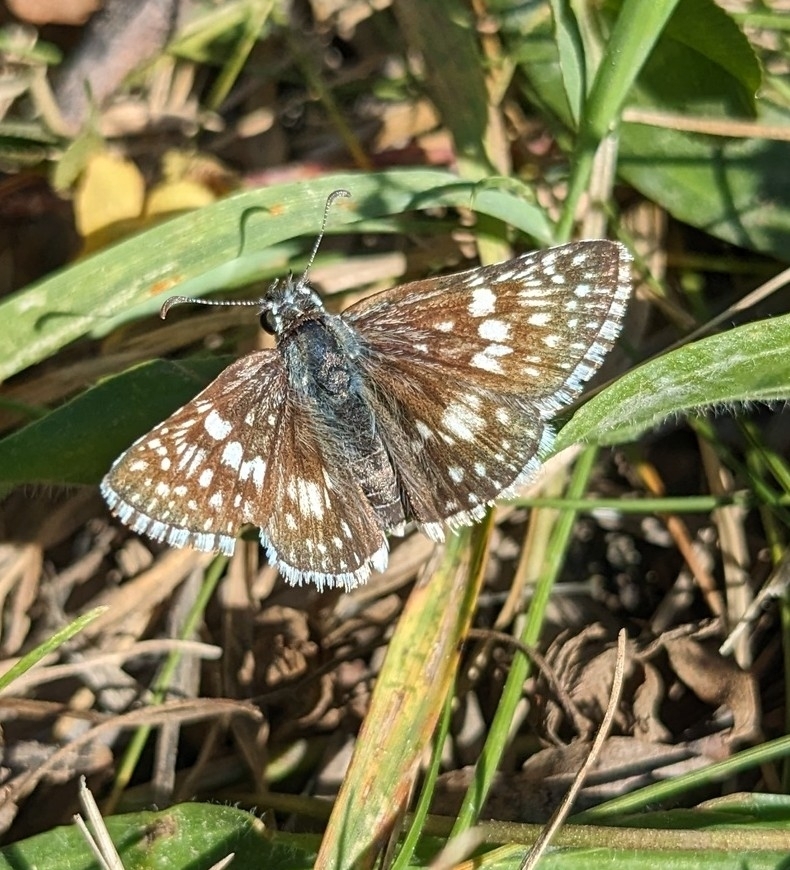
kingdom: Animalia
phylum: Arthropoda
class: Insecta
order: Lepidoptera
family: Hesperiidae
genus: Burnsius
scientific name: Burnsius communis
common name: Common checkered-skipper
